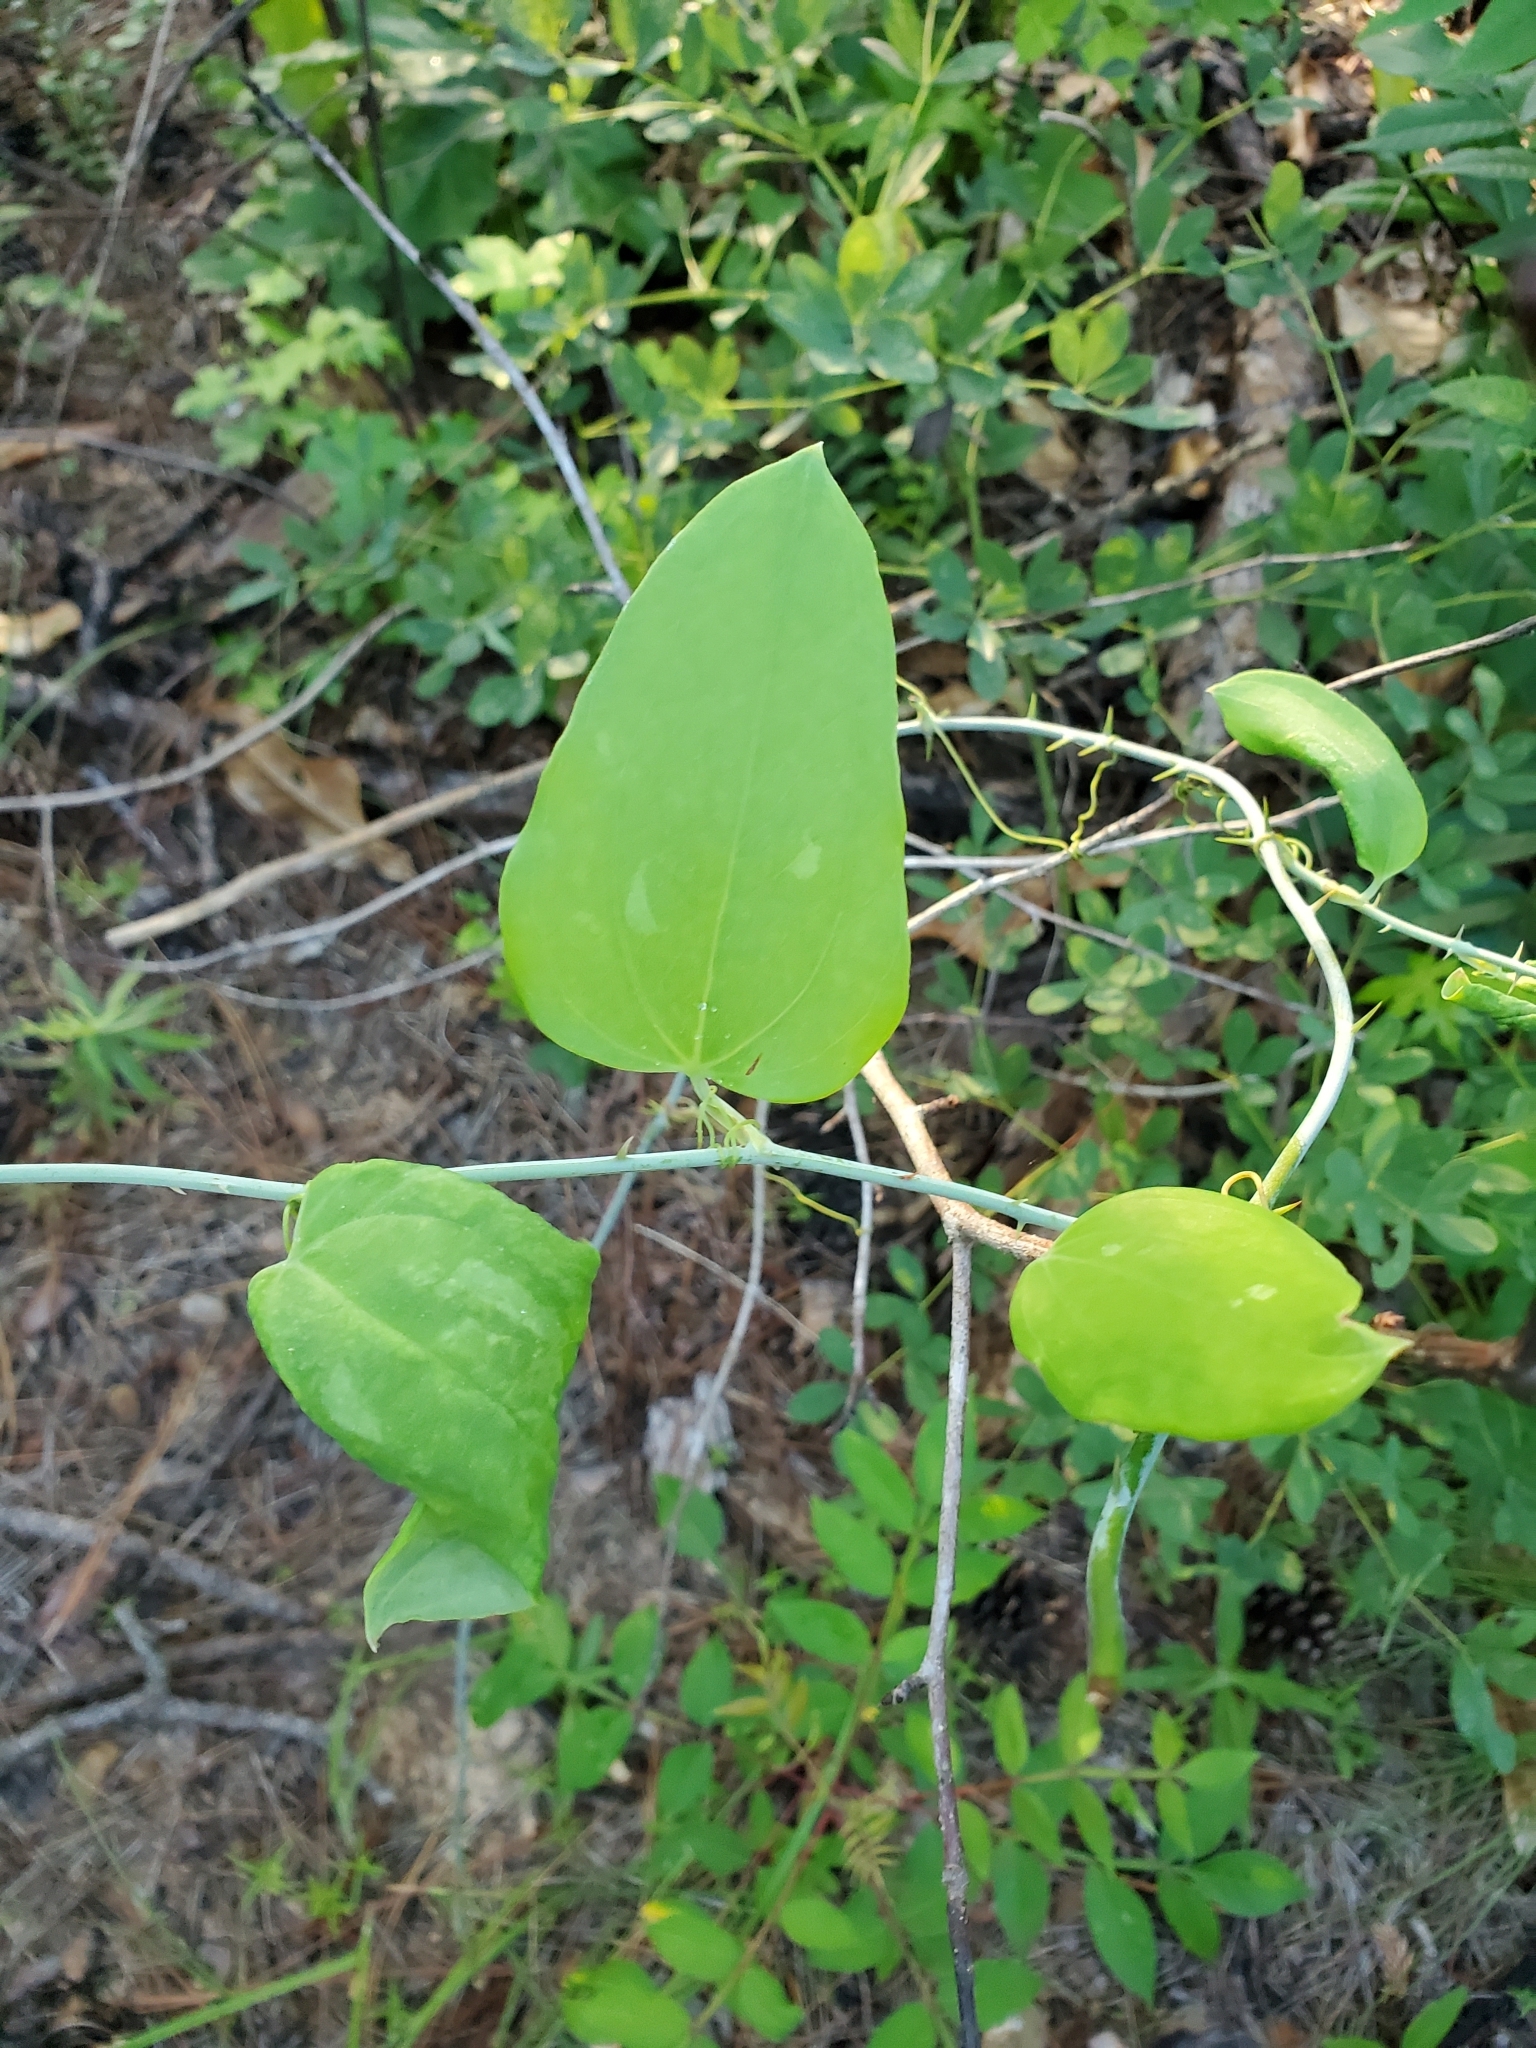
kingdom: Plantae
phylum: Tracheophyta
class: Liliopsida
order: Liliales
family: Smilacaceae
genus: Smilax
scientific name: Smilax glauca
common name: Cat greenbrier
